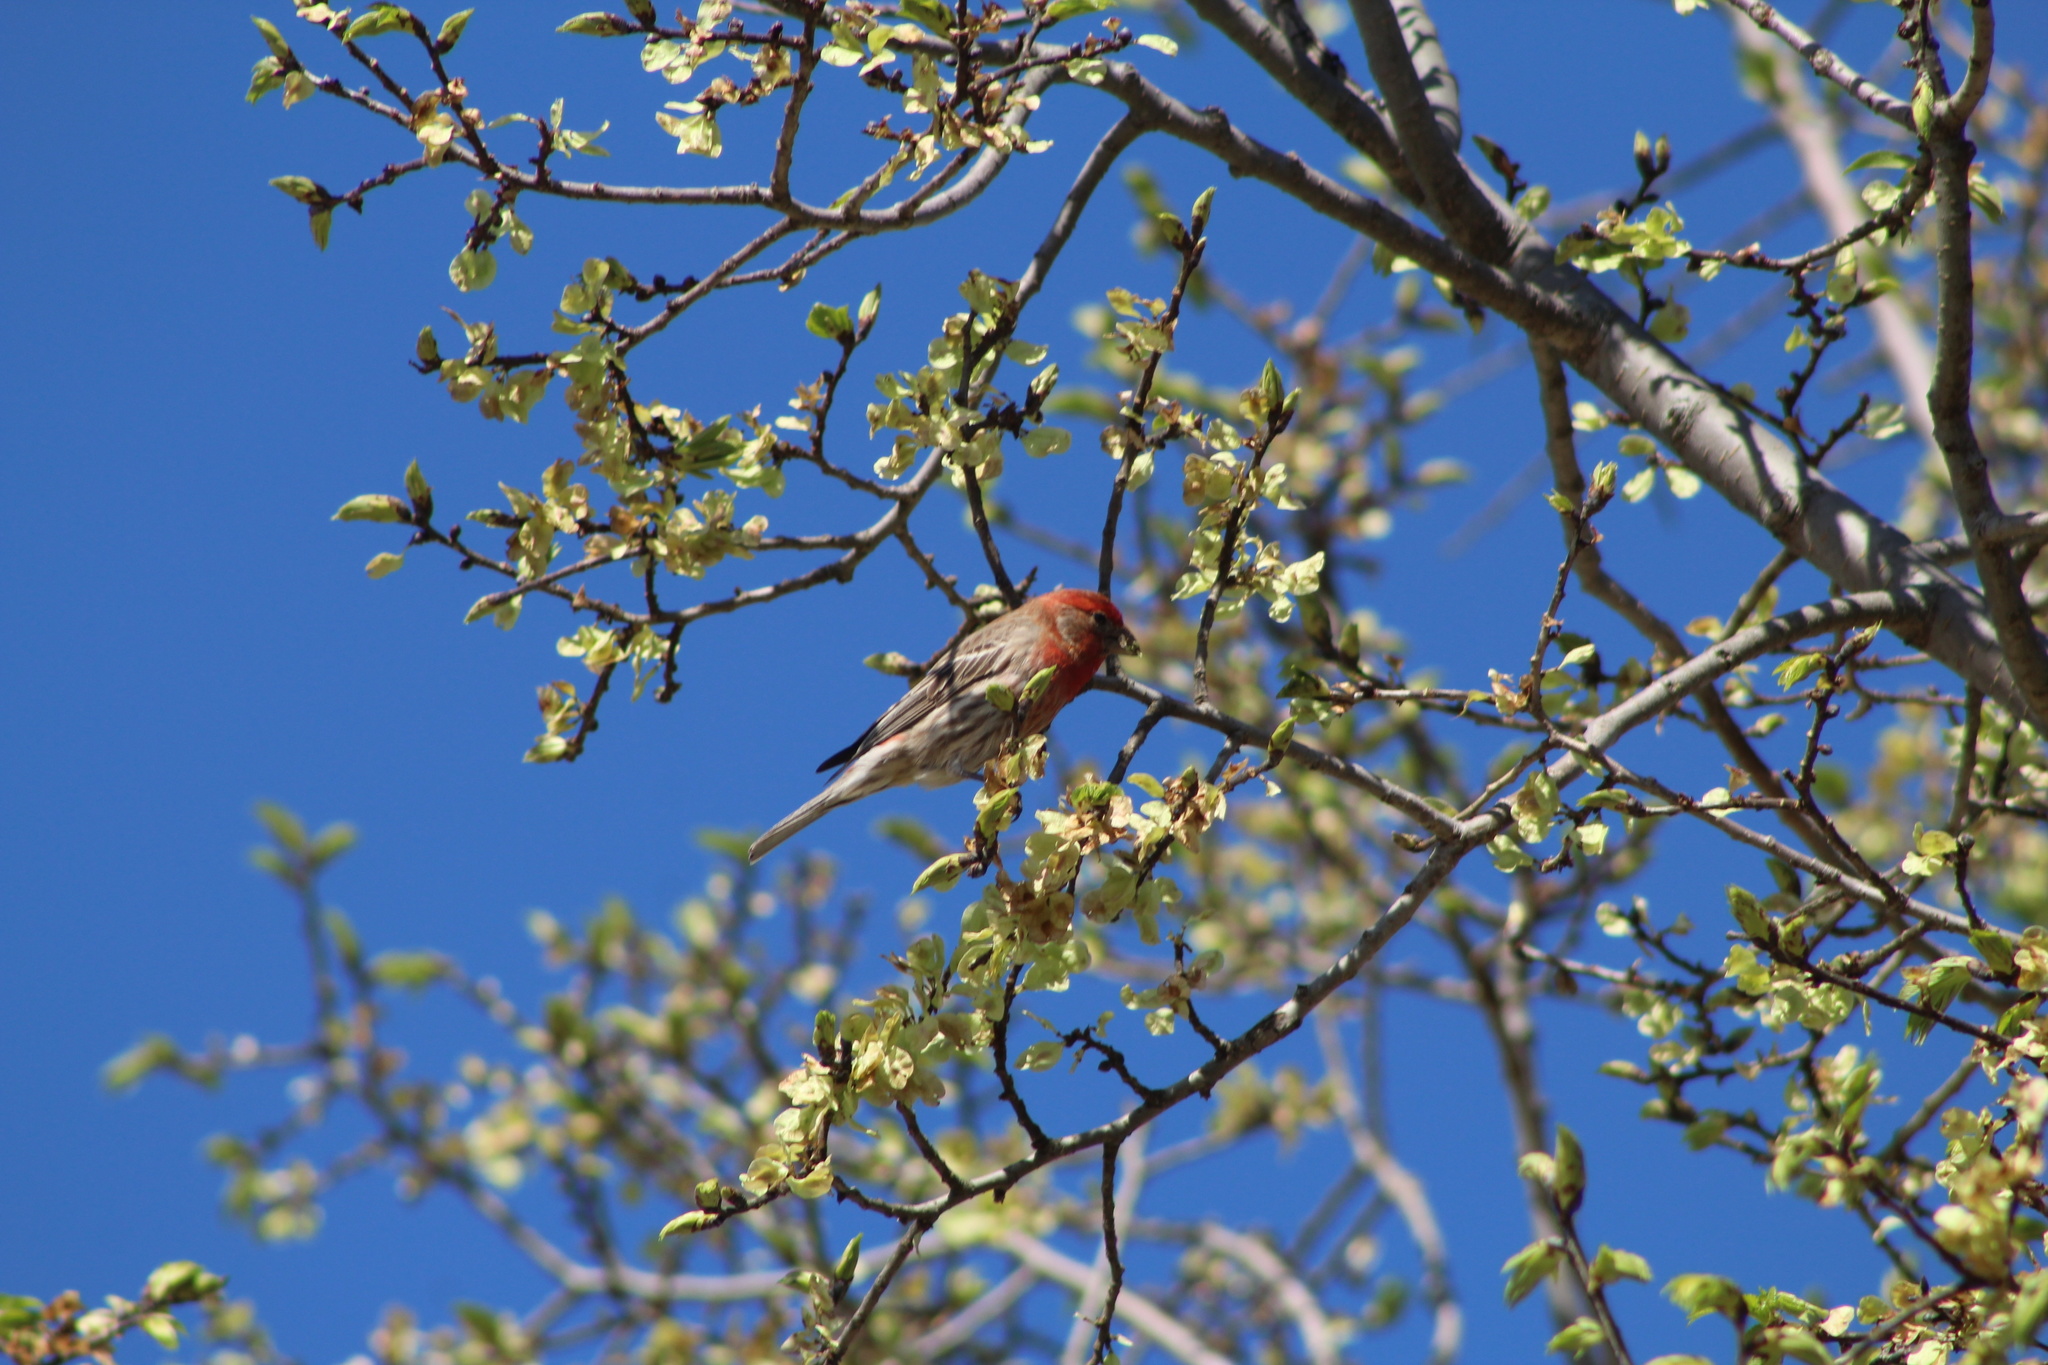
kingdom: Animalia
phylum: Chordata
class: Aves
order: Passeriformes
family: Fringillidae
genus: Haemorhous
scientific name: Haemorhous mexicanus
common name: House finch
